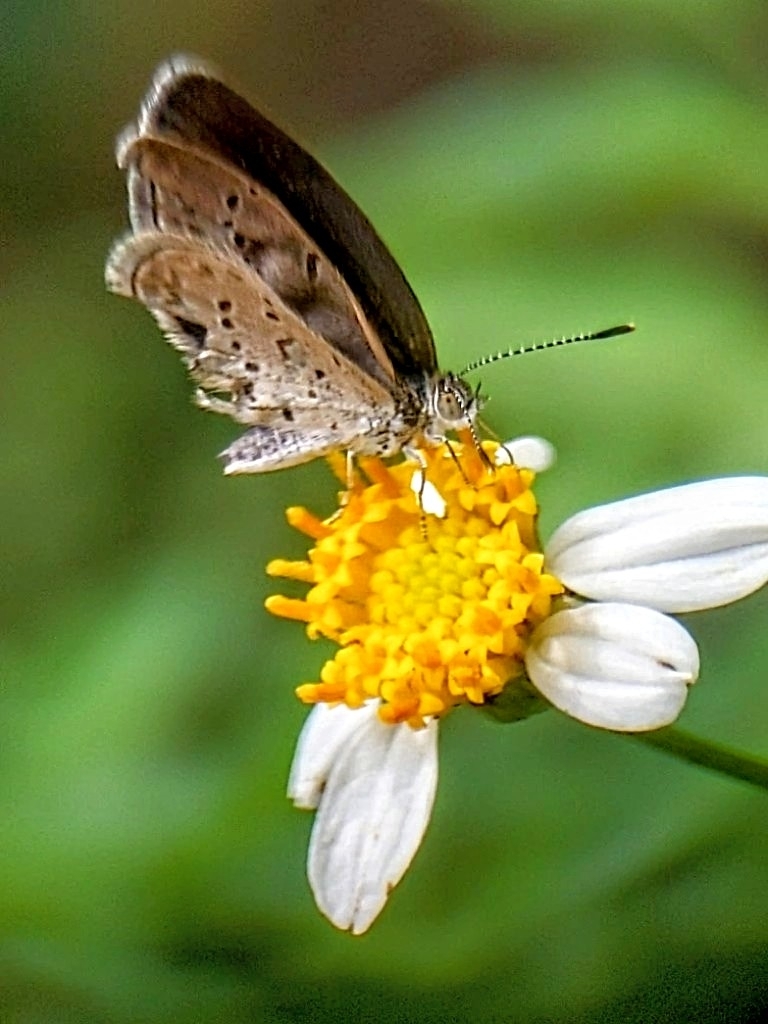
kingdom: Animalia
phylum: Arthropoda
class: Insecta
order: Lepidoptera
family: Lycaenidae
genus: Zizina
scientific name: Zizina otis
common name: Lesser grass blue
